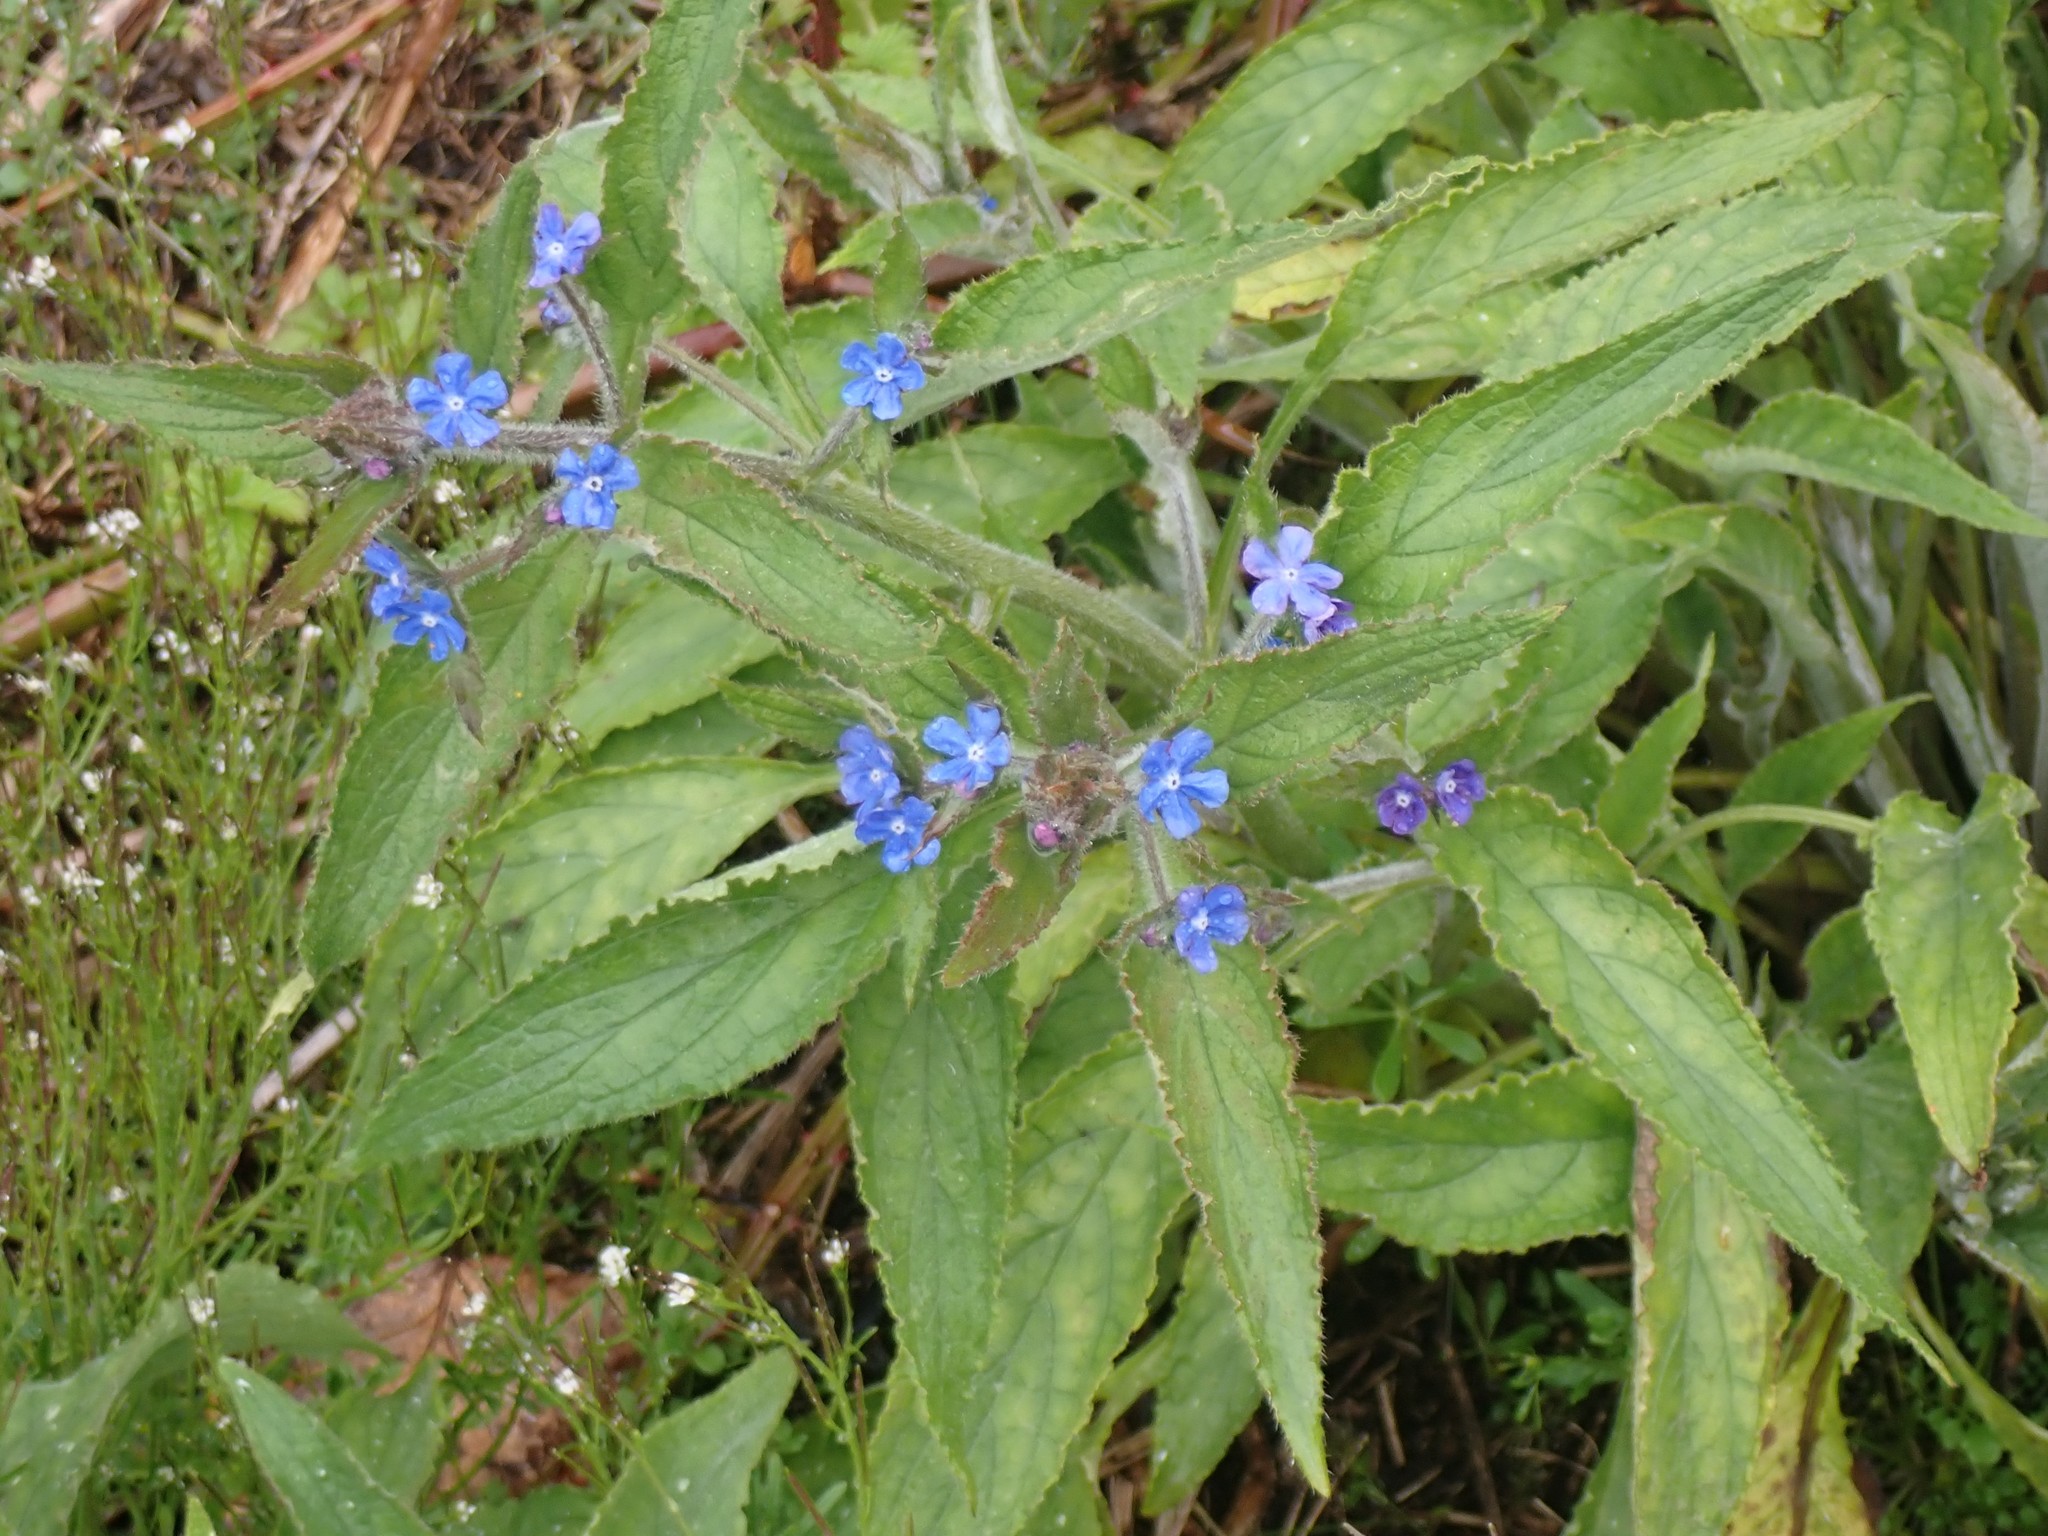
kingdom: Plantae
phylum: Tracheophyta
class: Magnoliopsida
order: Boraginales
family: Boraginaceae
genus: Pentaglottis
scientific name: Pentaglottis sempervirens
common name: Green alkanet
